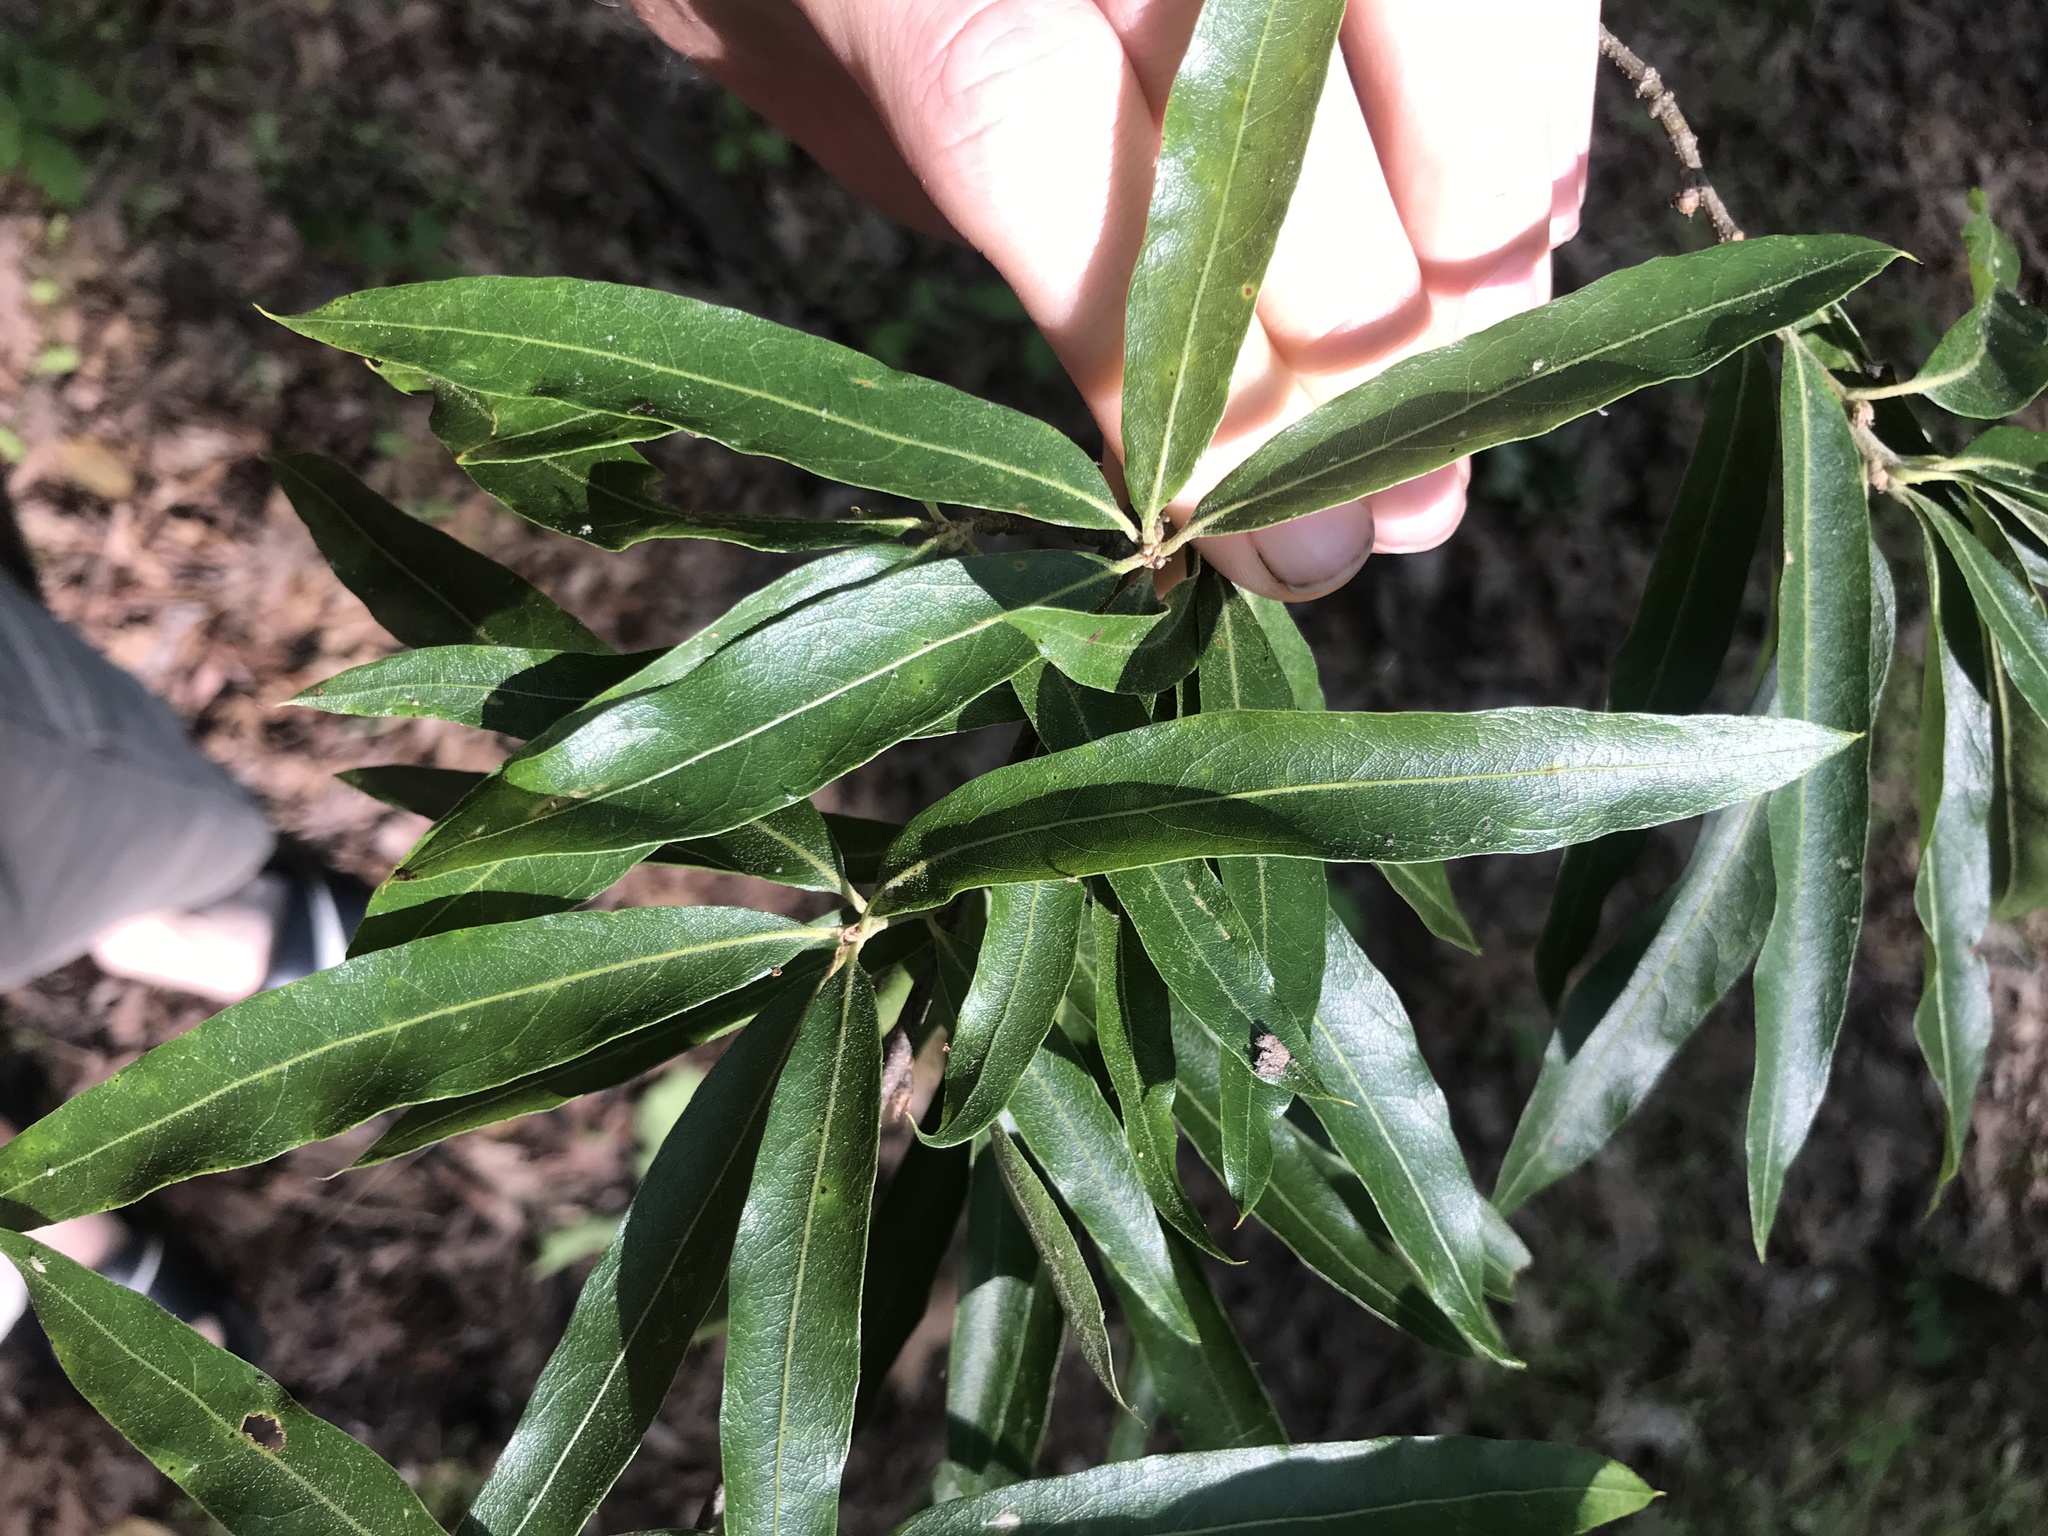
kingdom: Plantae
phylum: Tracheophyta
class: Magnoliopsida
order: Fagales
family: Fagaceae
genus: Quercus
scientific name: Quercus phellos
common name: Willow oak
